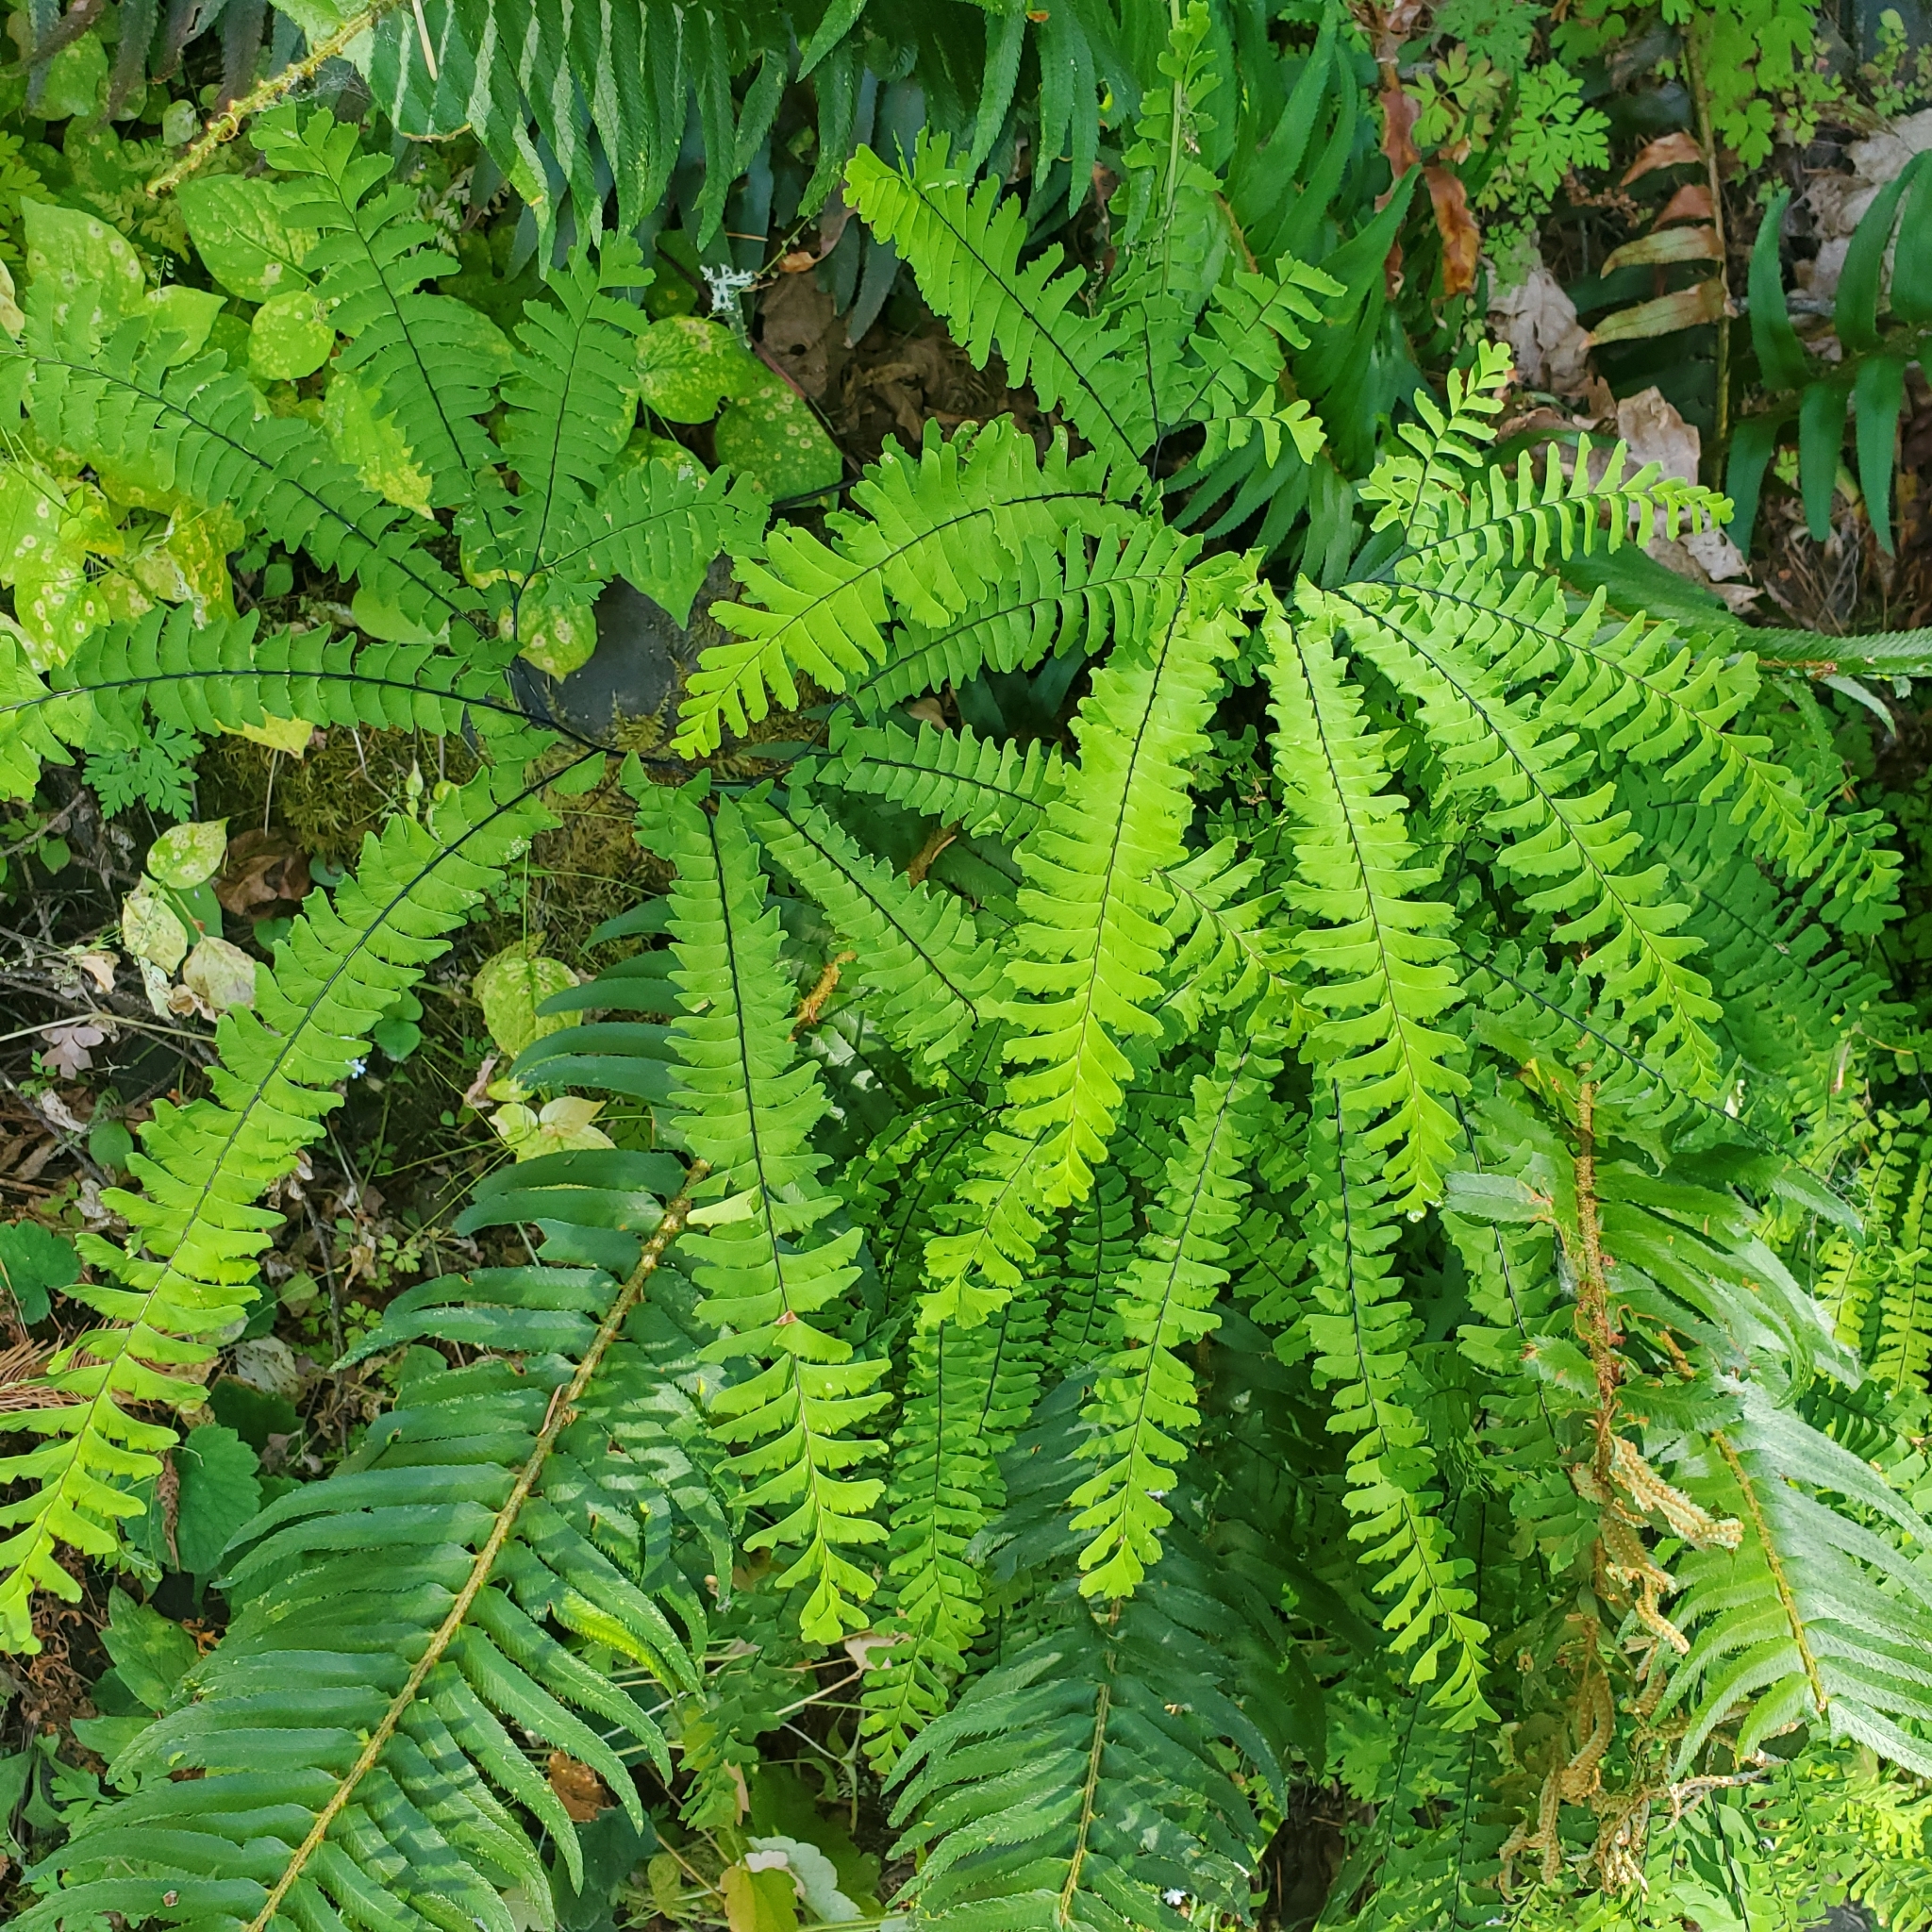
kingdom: Plantae
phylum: Tracheophyta
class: Polypodiopsida
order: Polypodiales
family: Pteridaceae
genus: Adiantum
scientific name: Adiantum aleuticum
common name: Aleutian maidenhair fern
